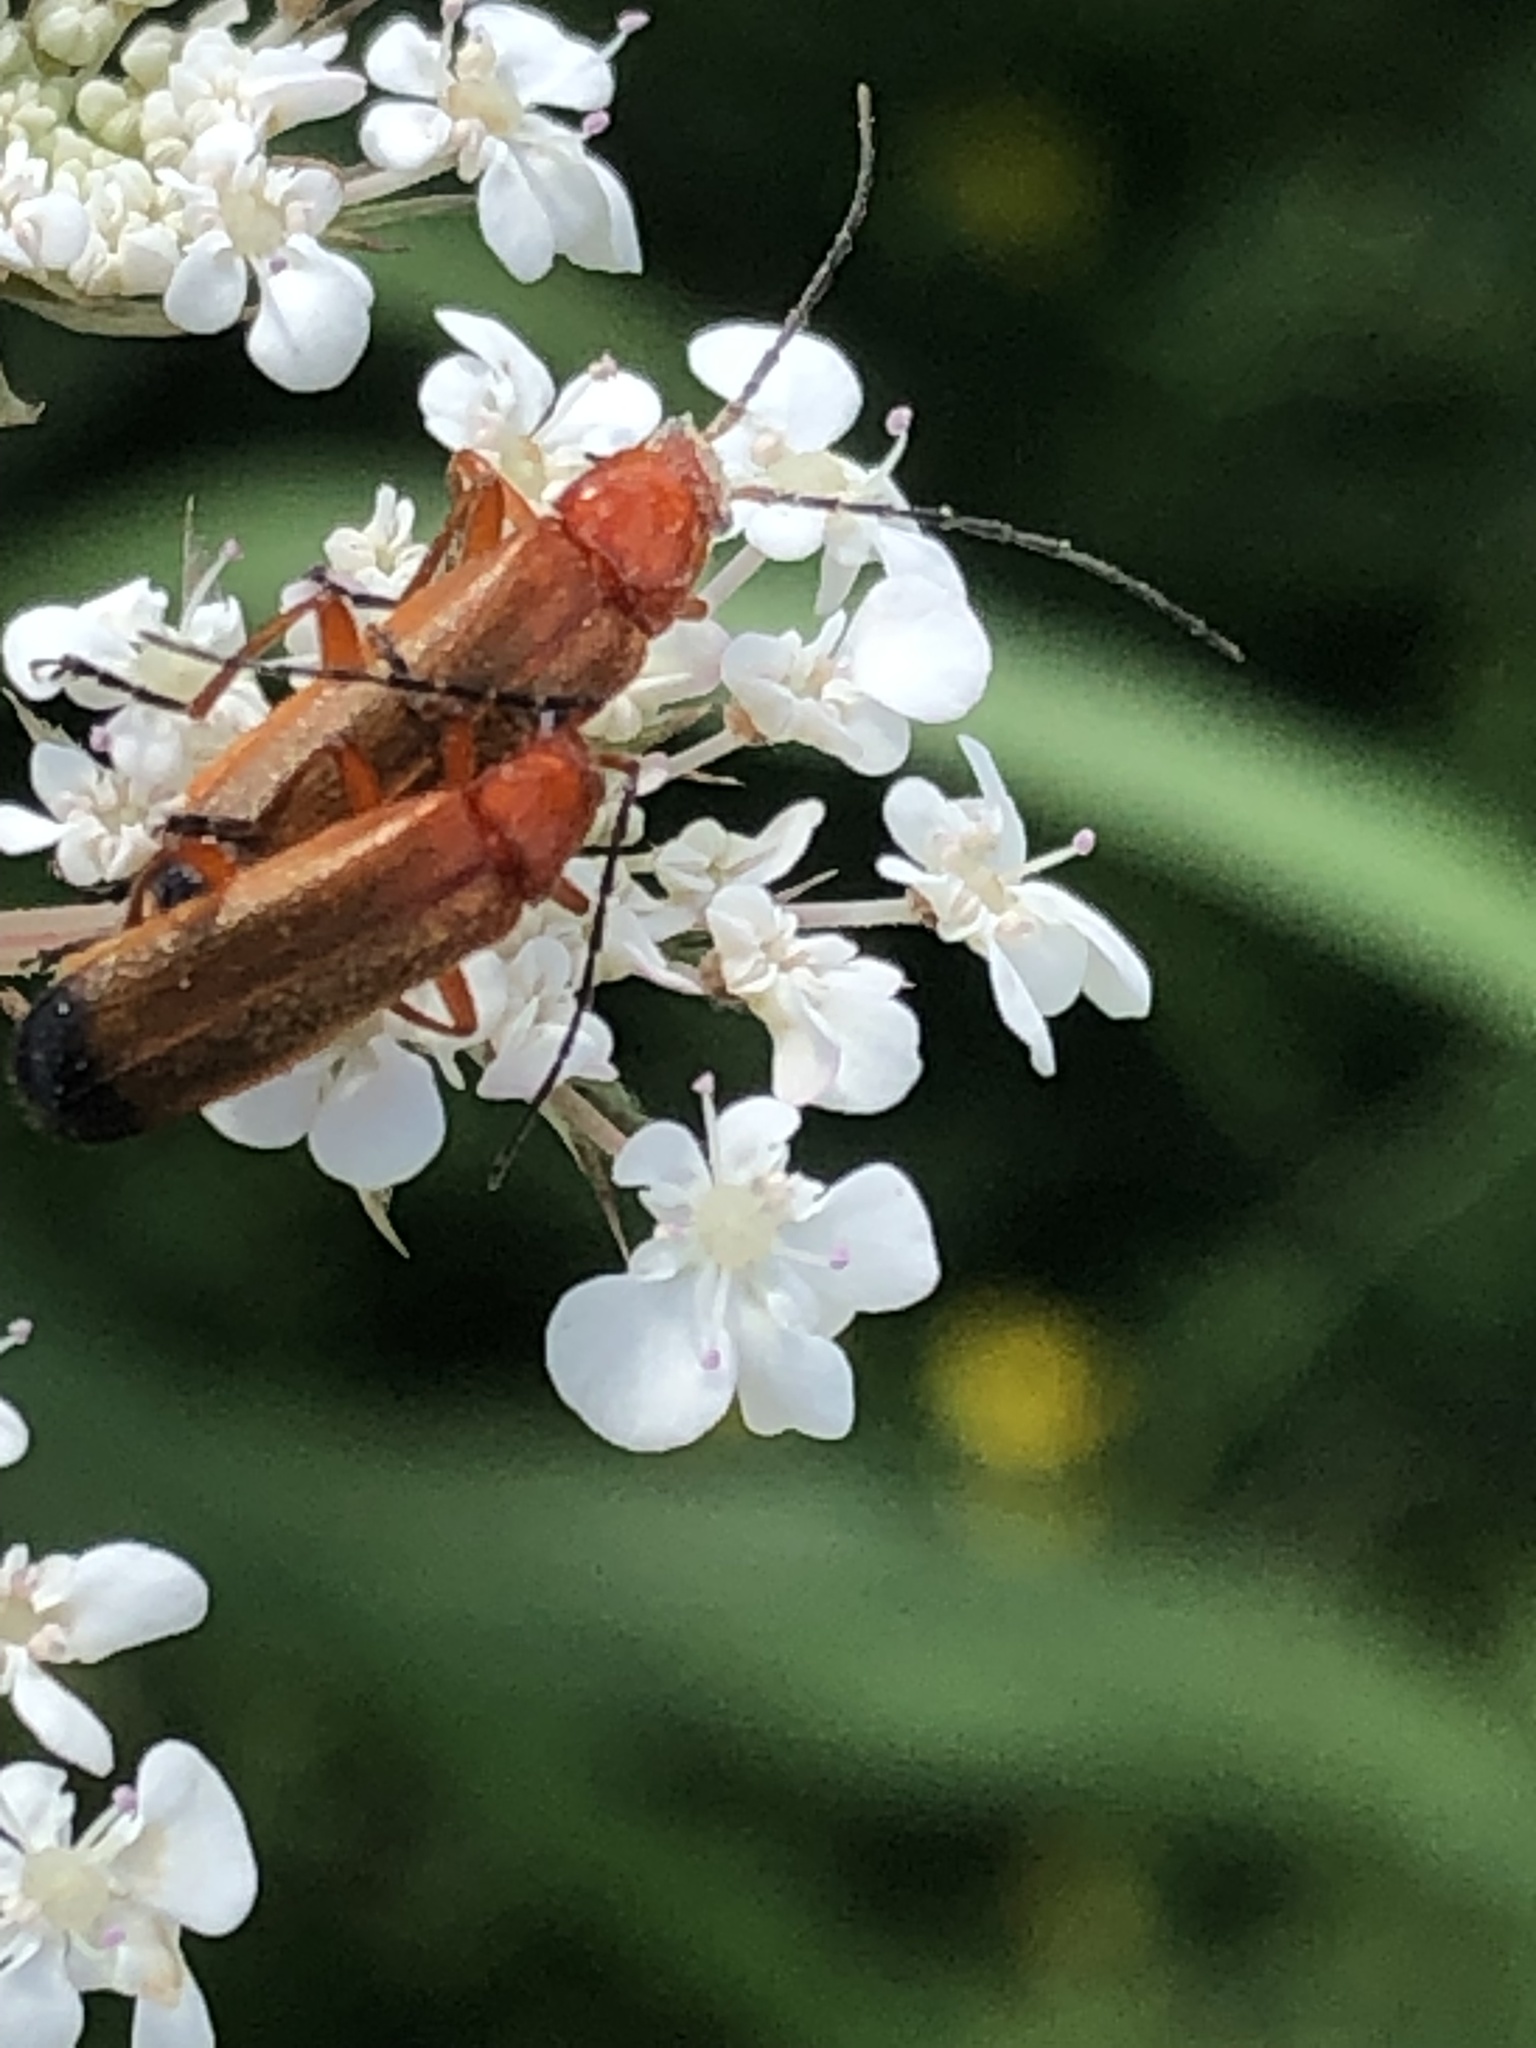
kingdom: Animalia
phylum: Arthropoda
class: Insecta
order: Coleoptera
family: Cantharidae
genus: Rhagonycha
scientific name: Rhagonycha fulva
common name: Common red soldier beetle
